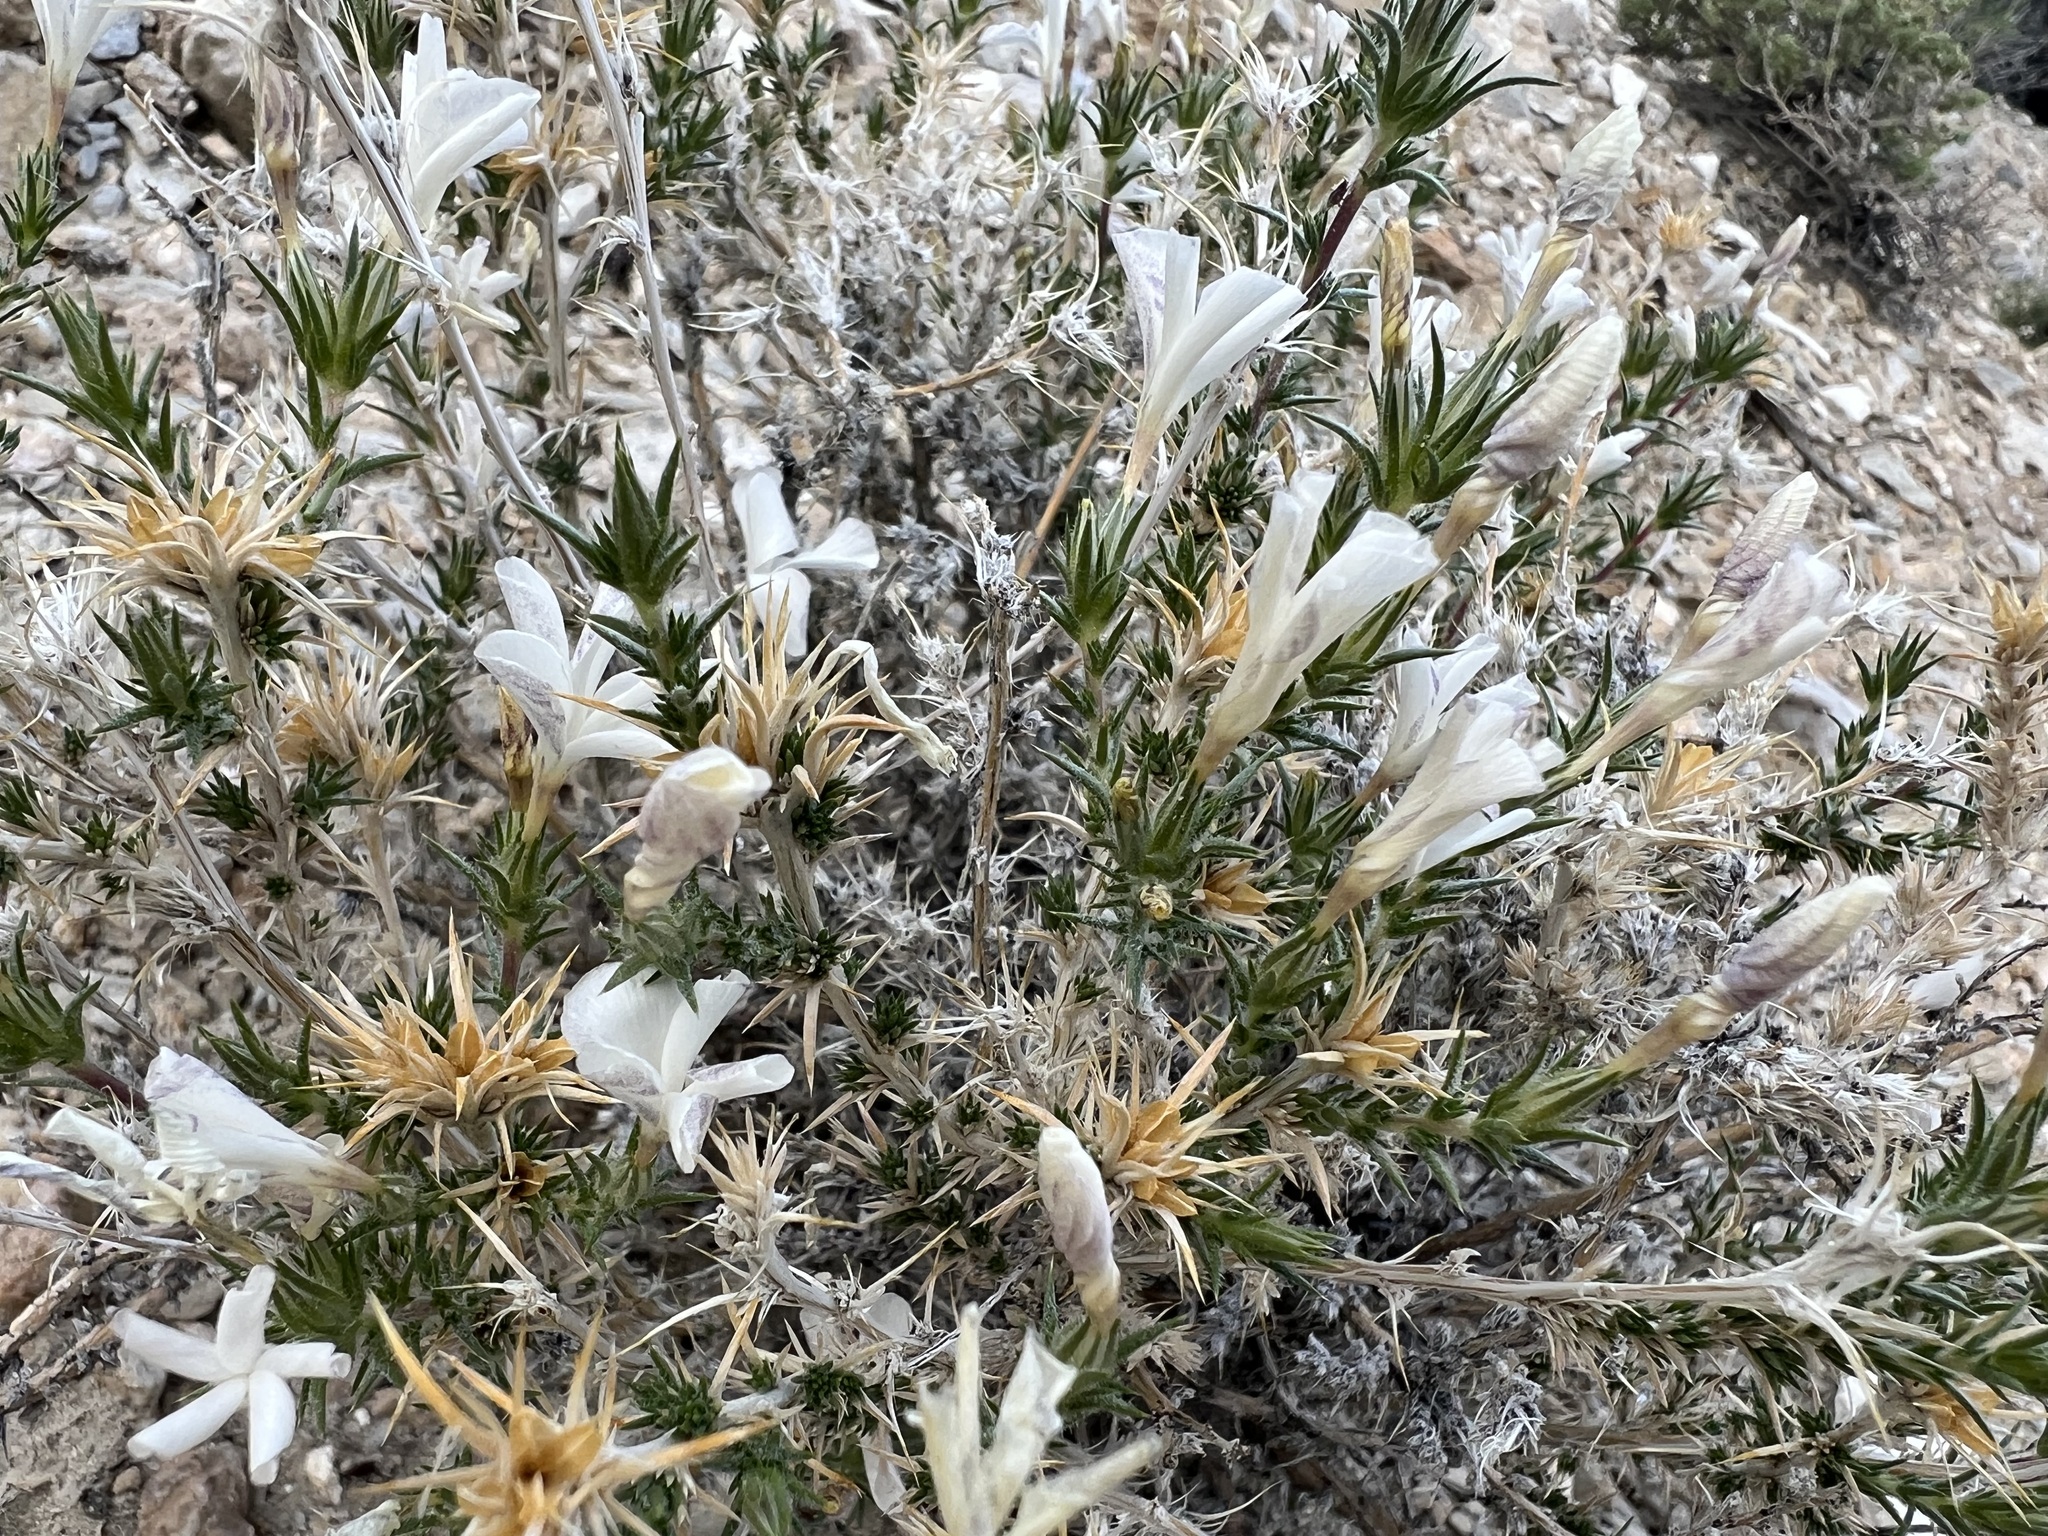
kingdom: Plantae
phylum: Tracheophyta
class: Magnoliopsida
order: Ericales
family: Polemoniaceae
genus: Linanthus
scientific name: Linanthus pungens
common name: Granite prickly phlox
